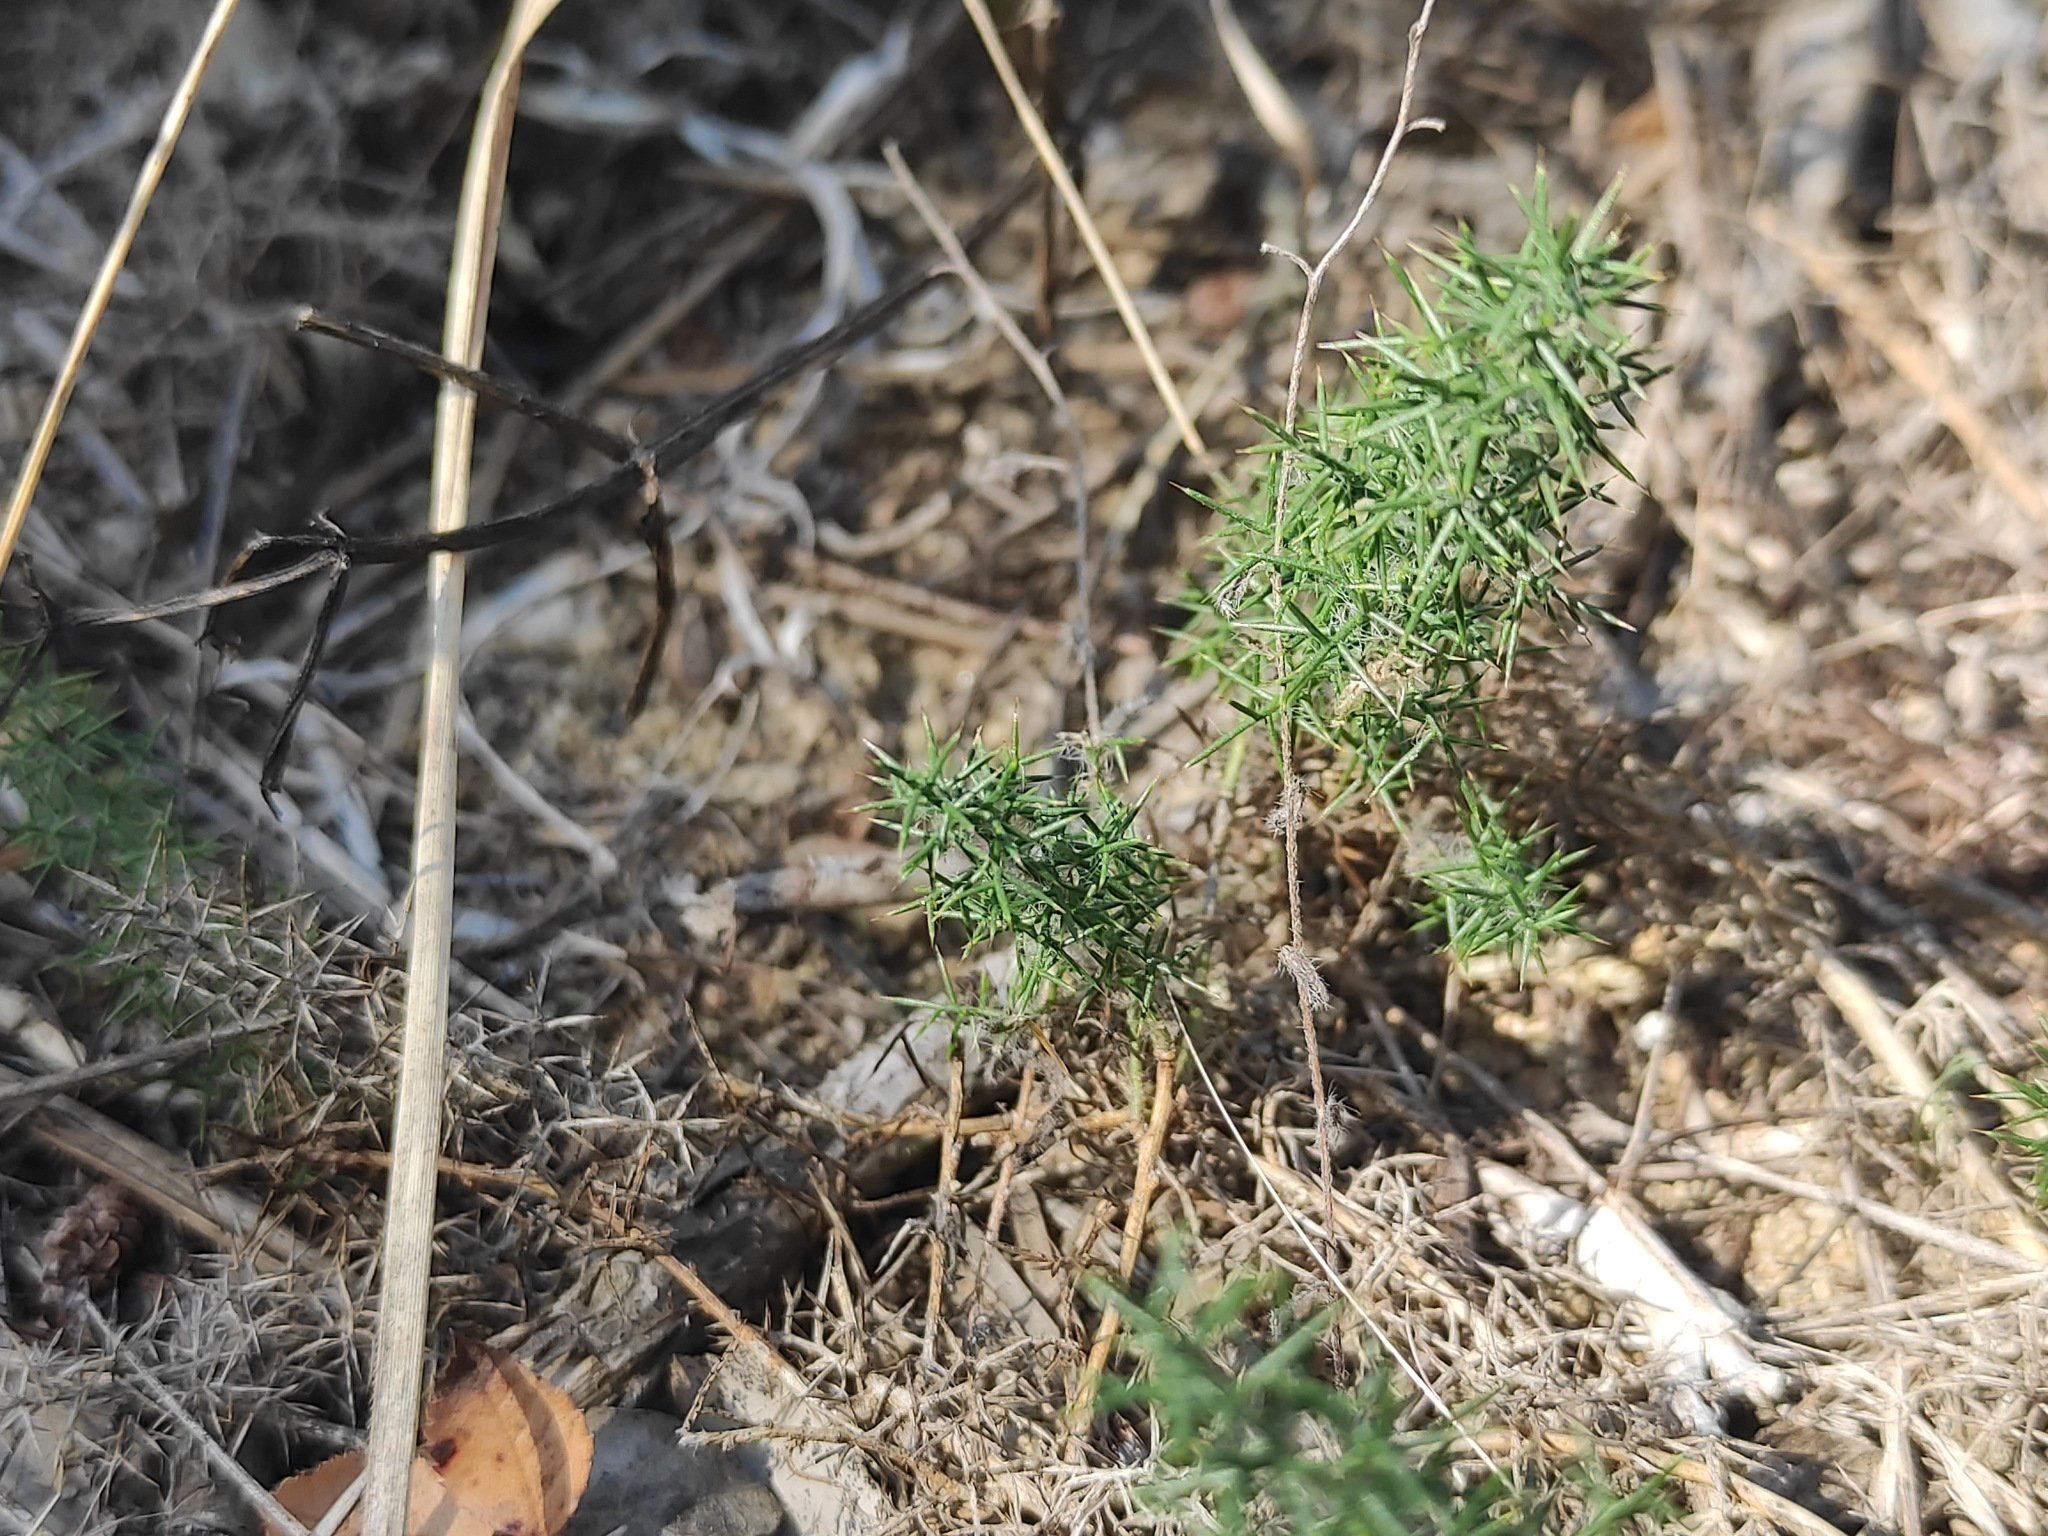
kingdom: Plantae
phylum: Tracheophyta
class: Magnoliopsida
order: Fabales
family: Fabaceae
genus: Genista
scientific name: Genista hispanica
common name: Spanish gorse
